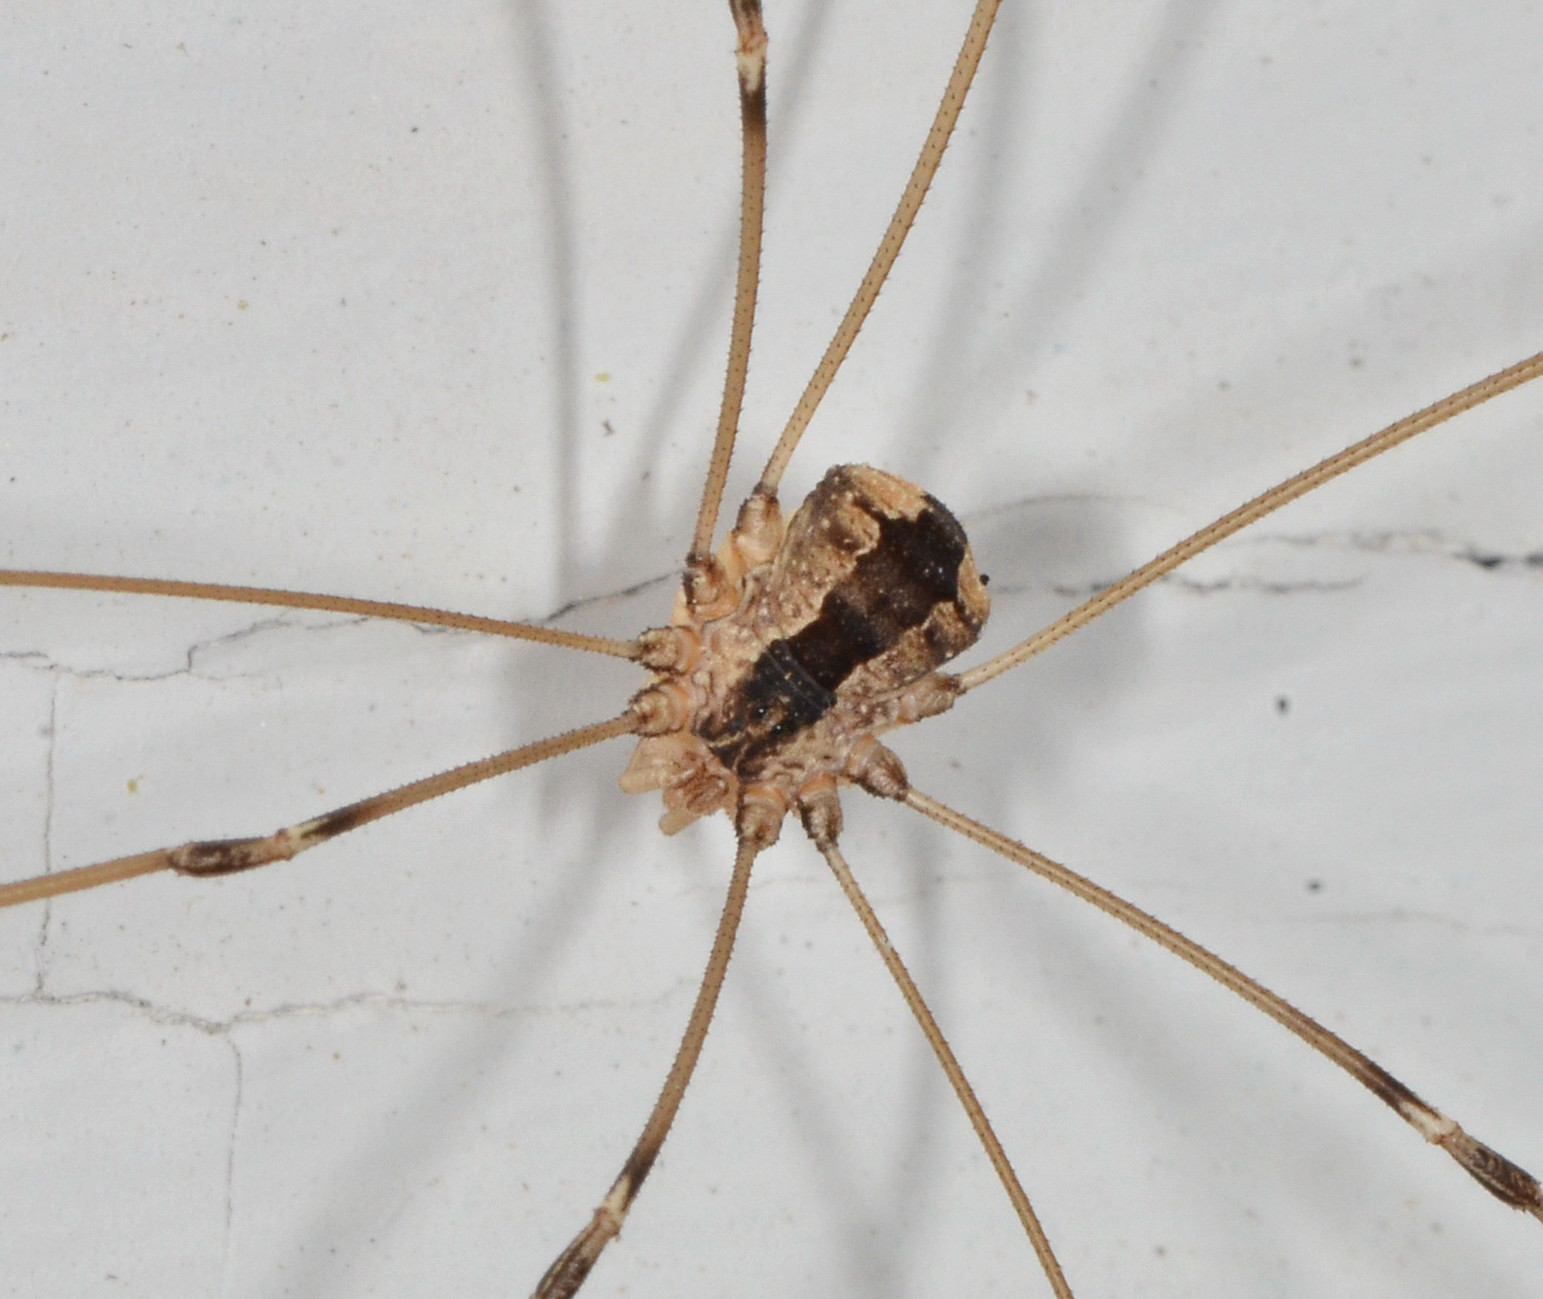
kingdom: Animalia
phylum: Arthropoda
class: Arachnida
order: Opiliones
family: Sclerosomatidae
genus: Leuronychus
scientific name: Leuronychus pacificus
